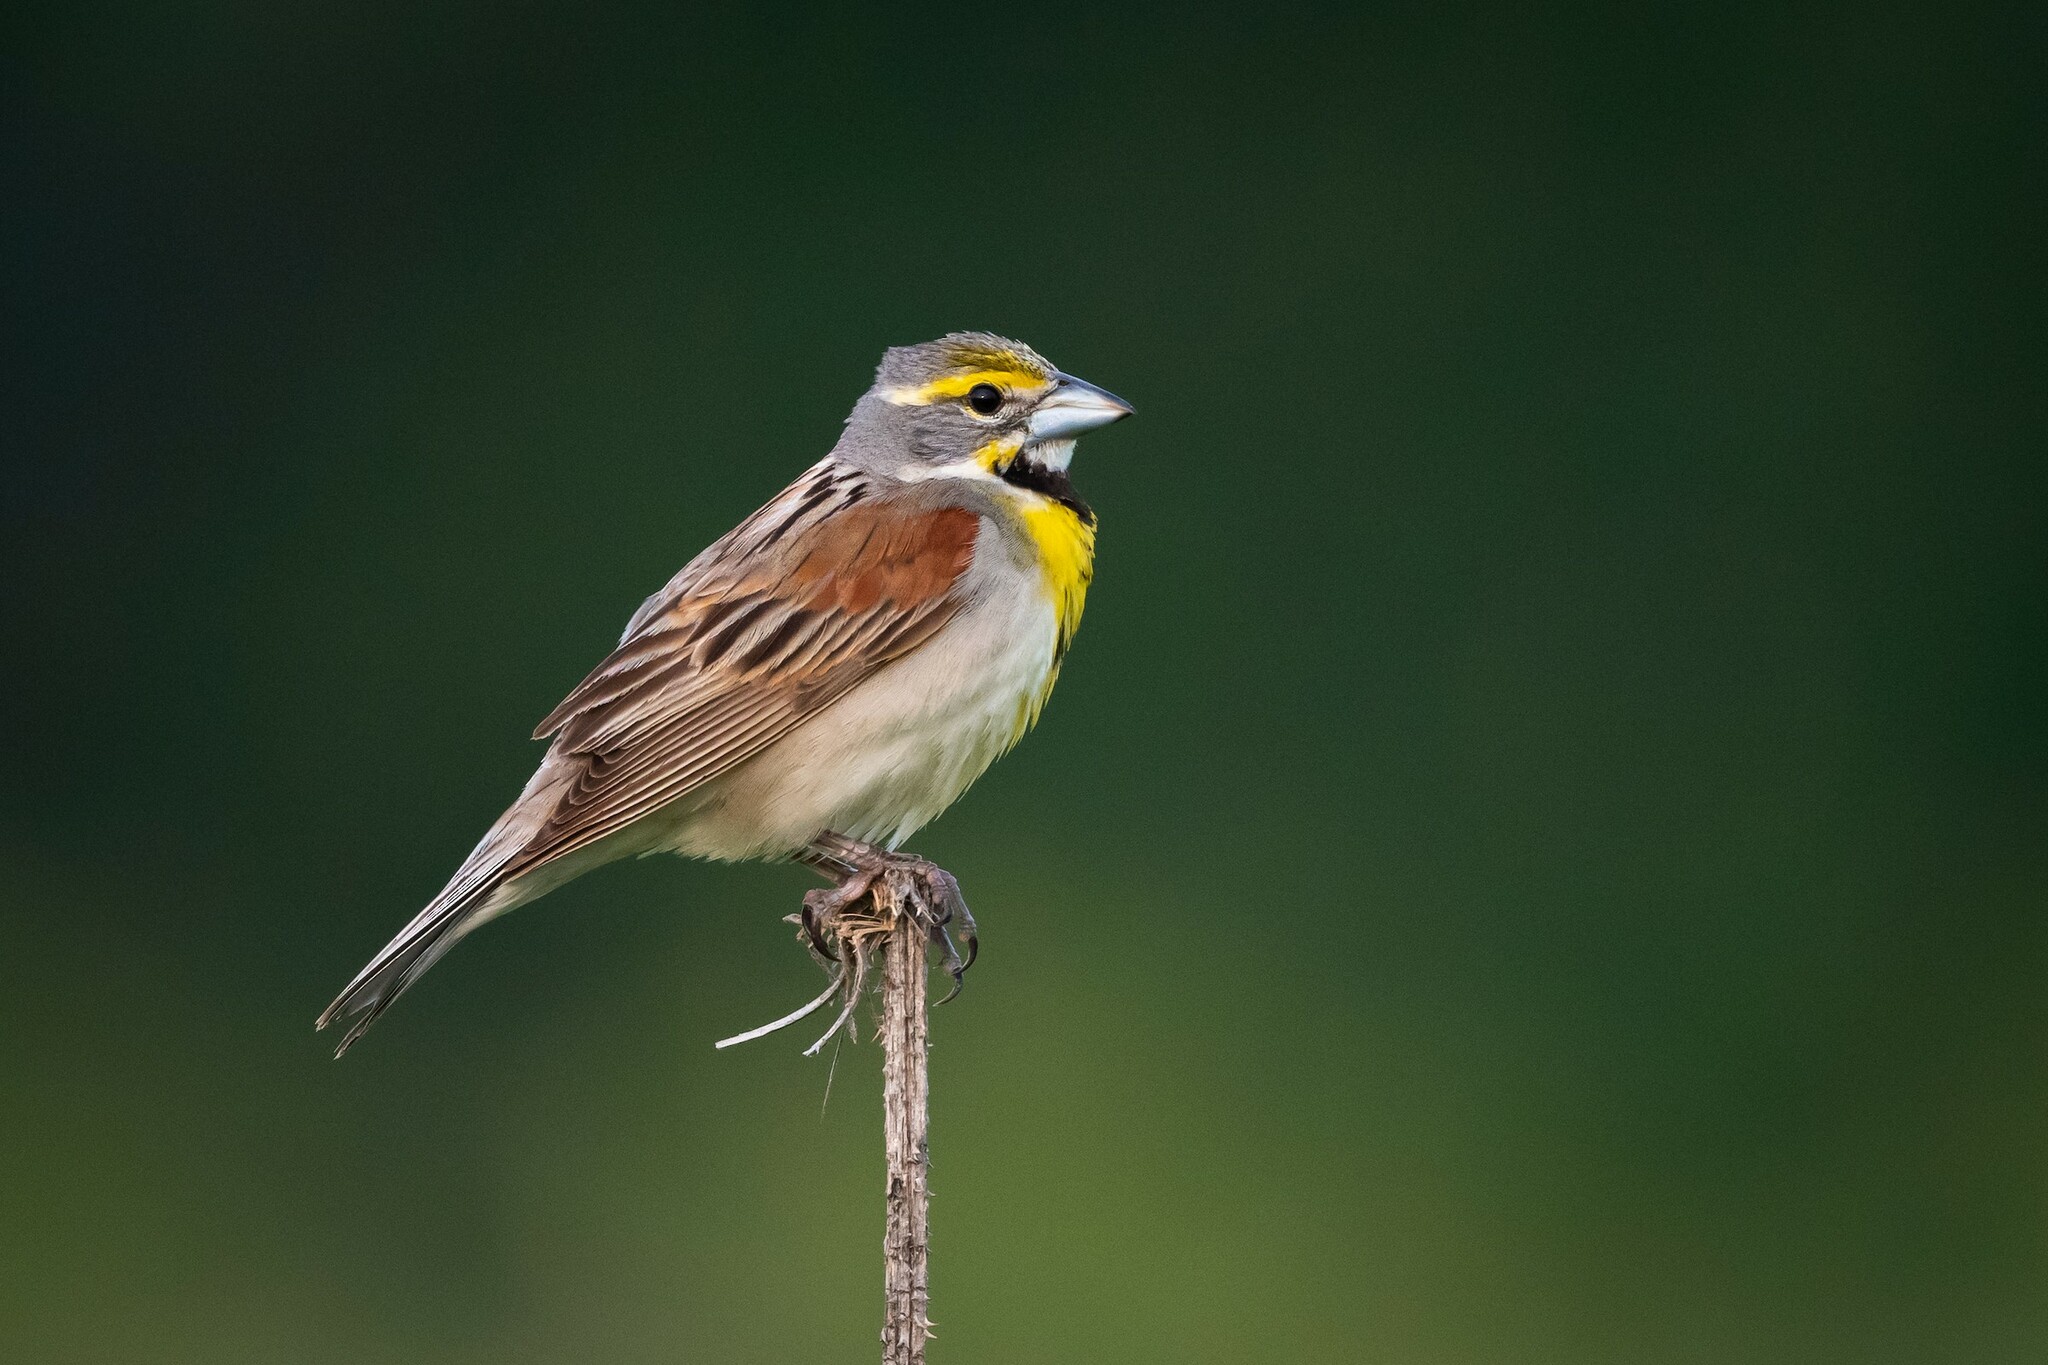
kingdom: Animalia
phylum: Chordata
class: Aves
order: Passeriformes
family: Cardinalidae
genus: Spiza
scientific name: Spiza americana
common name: Dickcissel
